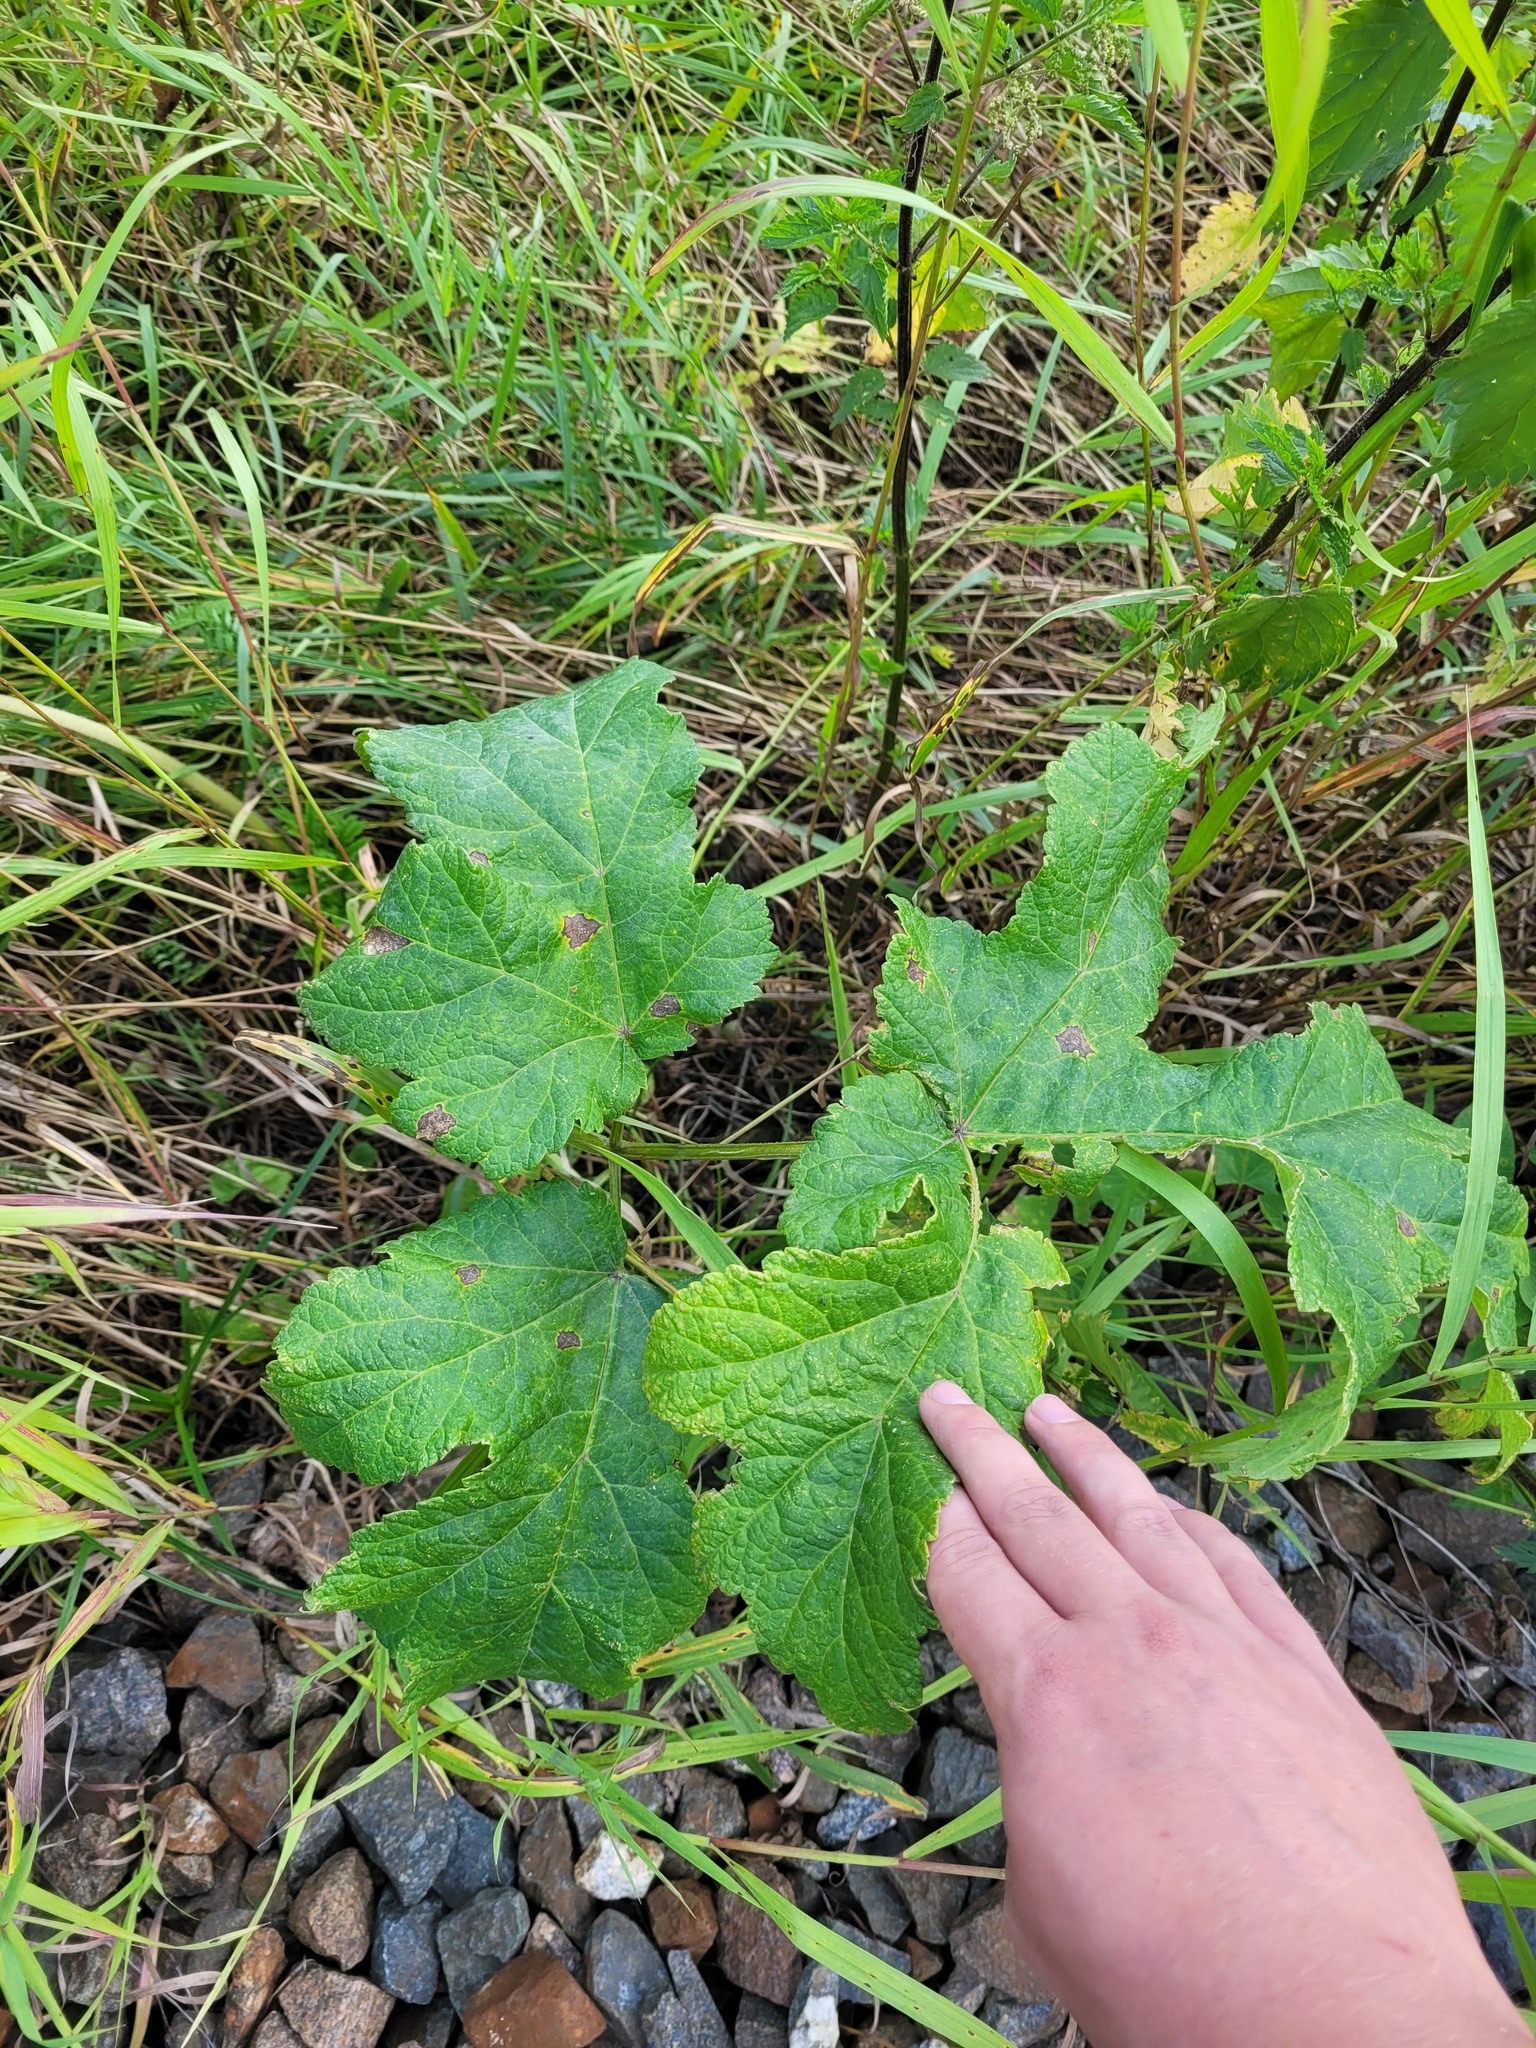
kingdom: Plantae
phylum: Tracheophyta
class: Magnoliopsida
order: Apiales
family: Apiaceae
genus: Heracleum
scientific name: Heracleum sphondylium
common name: Hogweed
